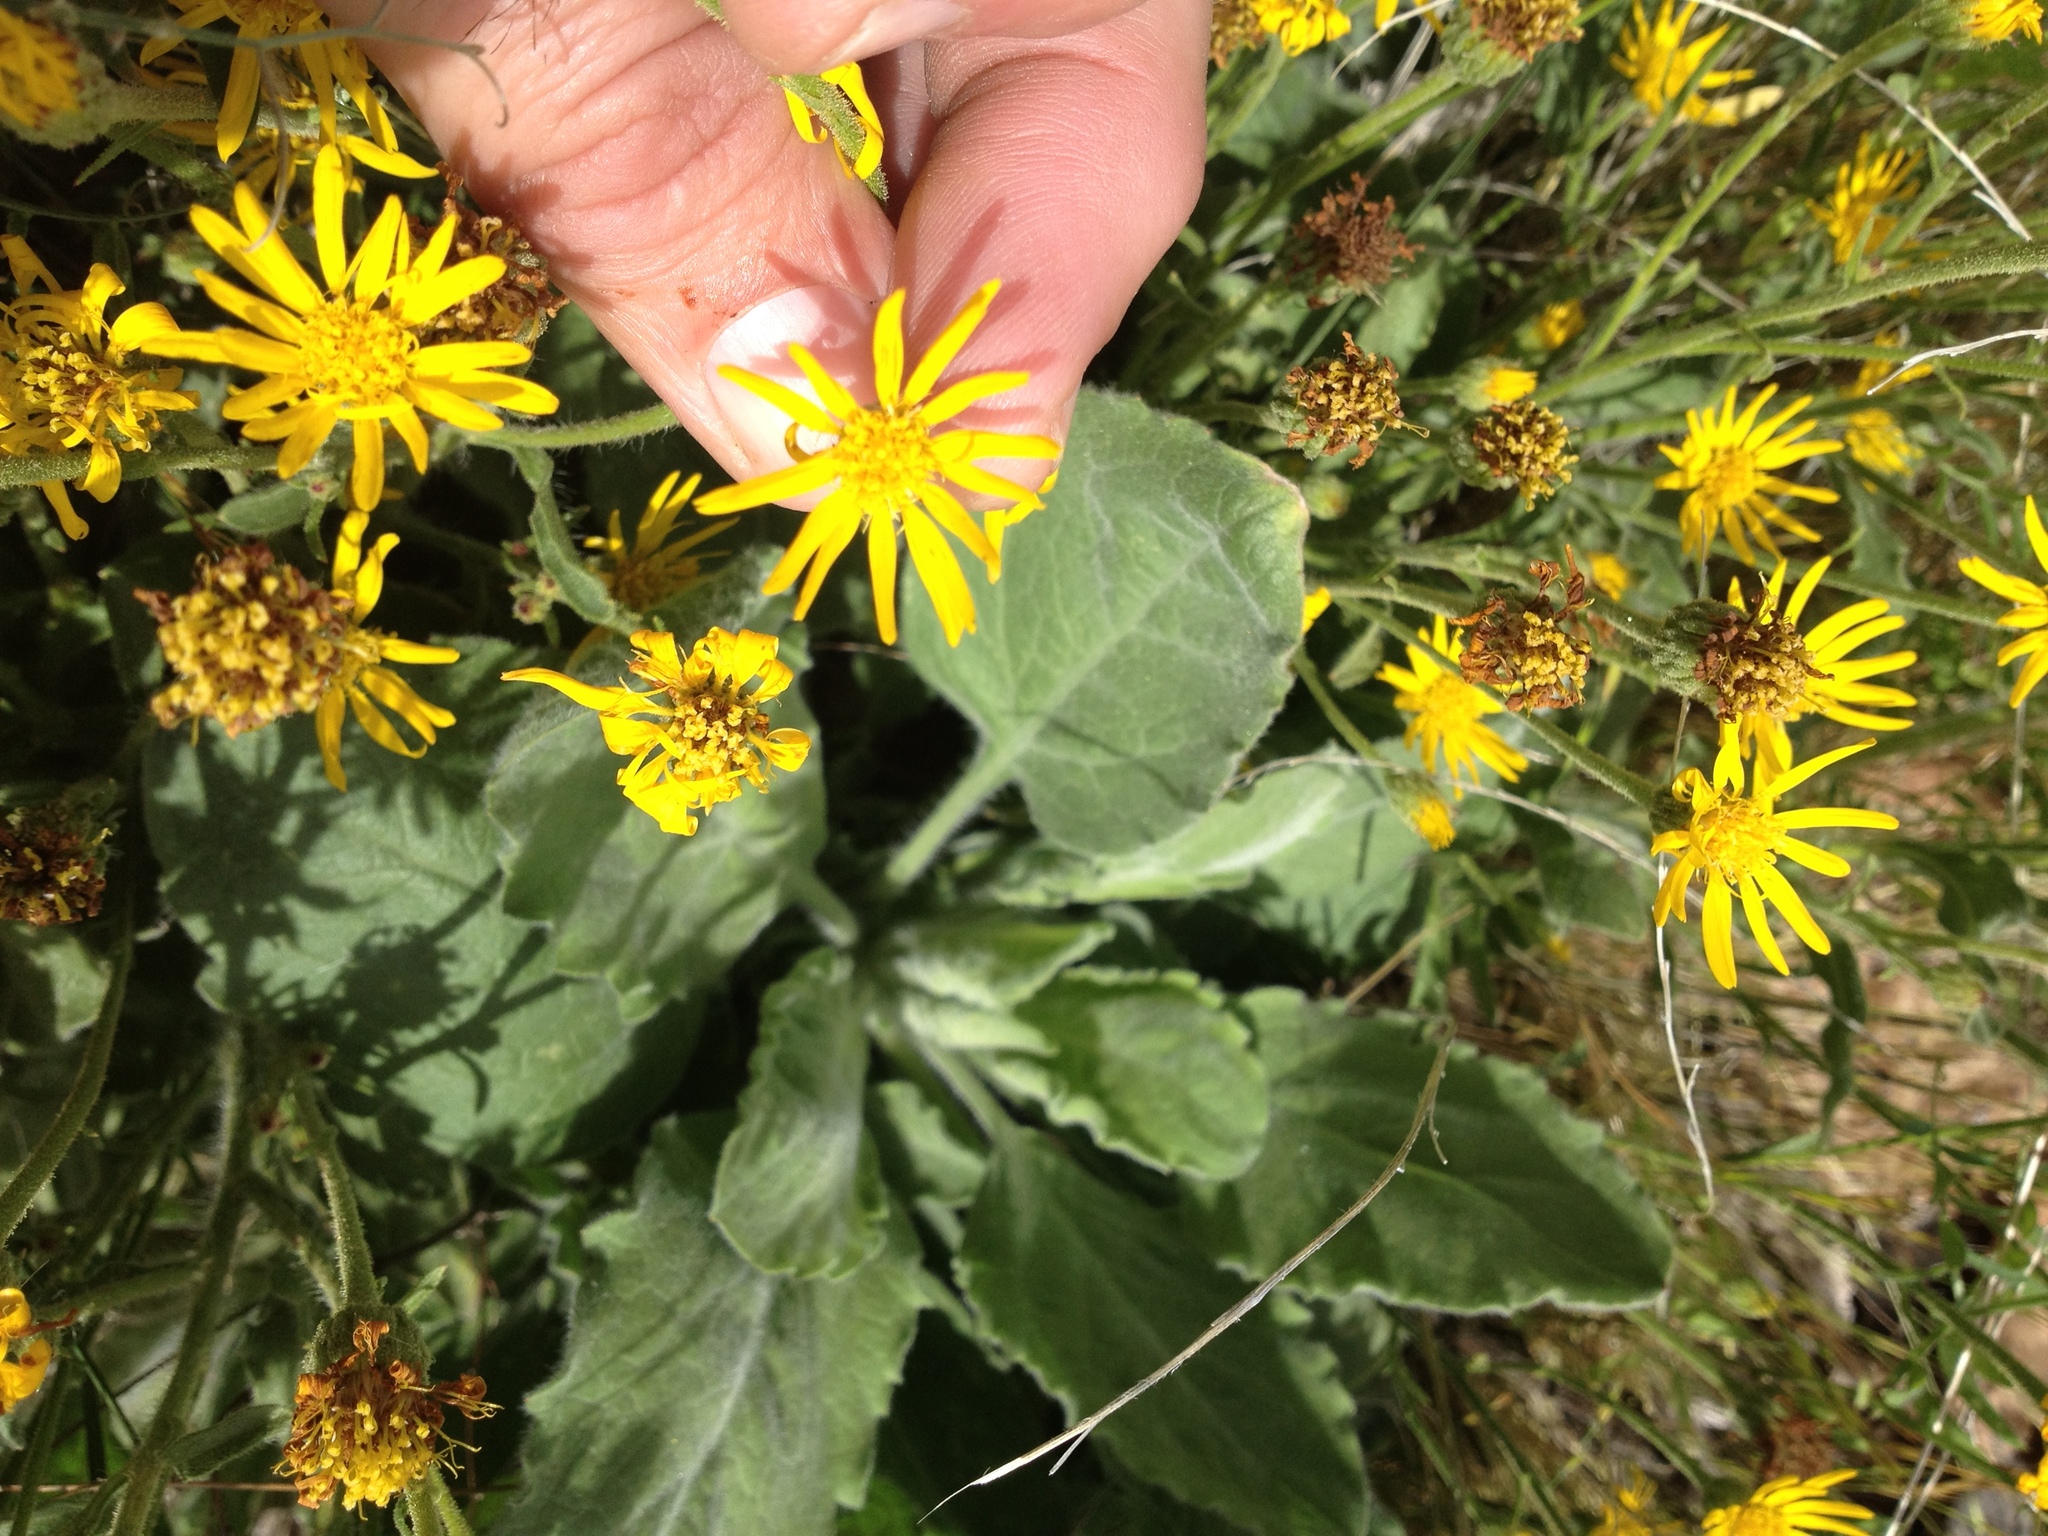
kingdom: Plantae
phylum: Tracheophyta
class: Magnoliopsida
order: Asterales
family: Asteraceae
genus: Heterotheca
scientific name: Heterotheca grandiflora
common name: Telegraphweed
